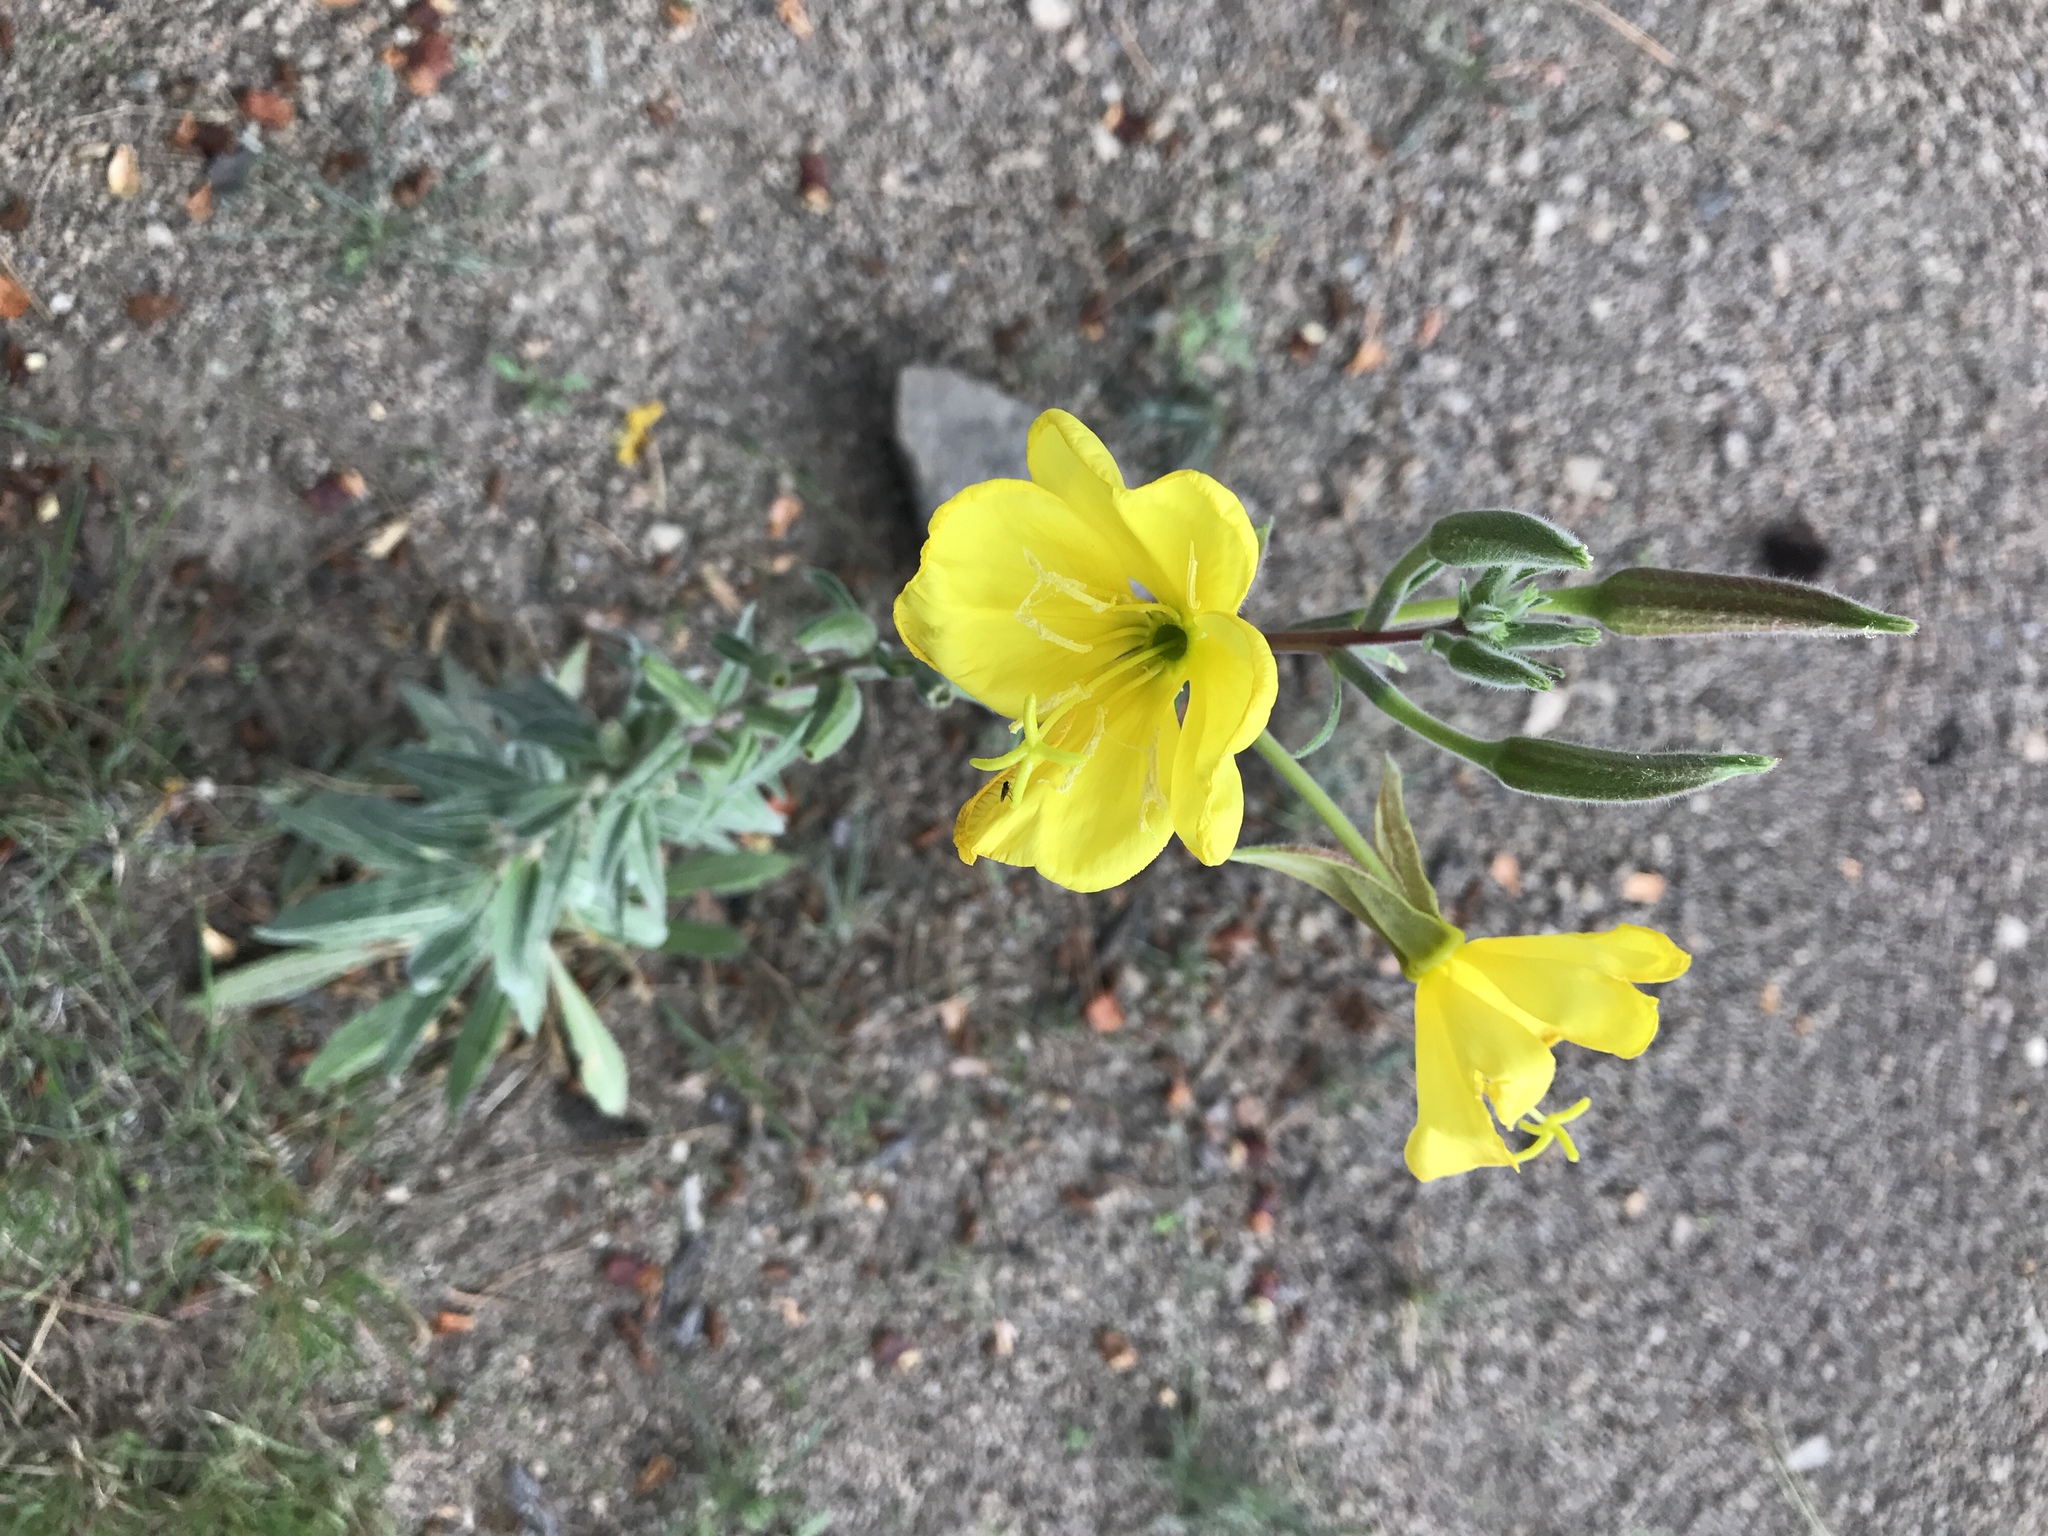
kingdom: Plantae
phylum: Tracheophyta
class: Magnoliopsida
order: Myrtales
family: Onagraceae
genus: Oenothera
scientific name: Oenothera elata
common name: Hooker's evening-primrose
